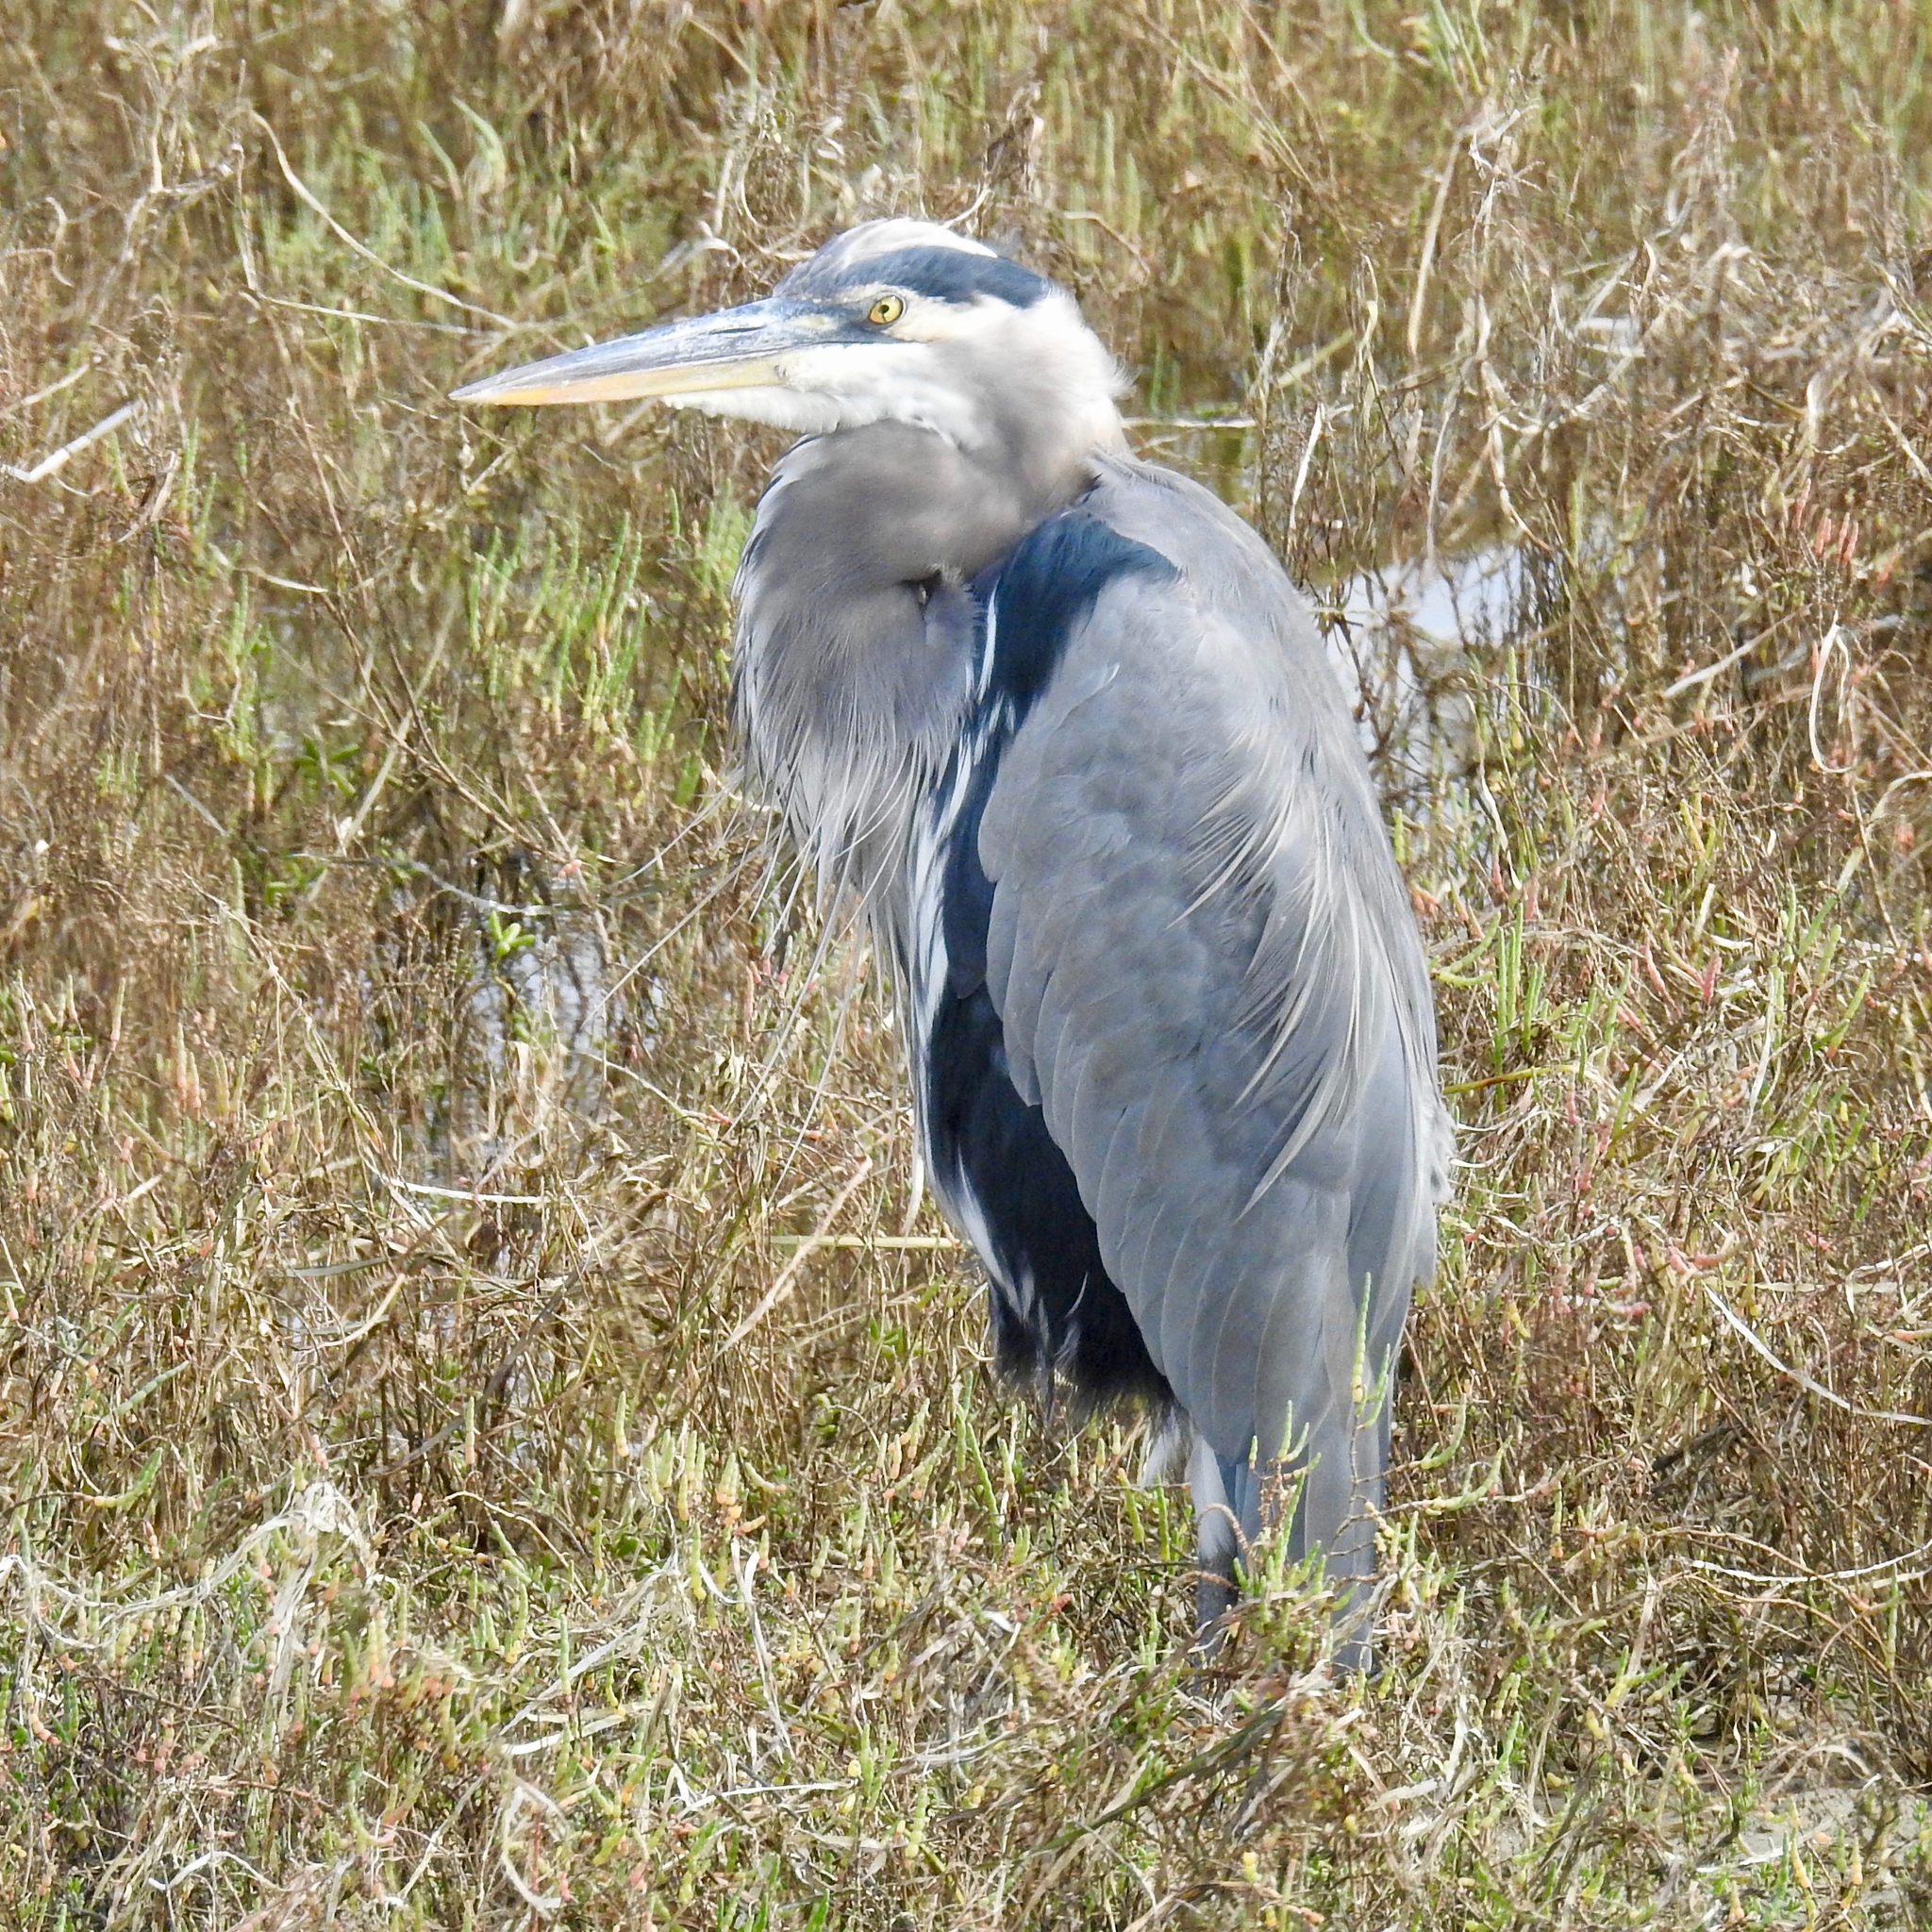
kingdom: Animalia
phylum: Chordata
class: Aves
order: Pelecaniformes
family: Ardeidae
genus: Ardea
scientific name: Ardea herodias
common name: Great blue heron
